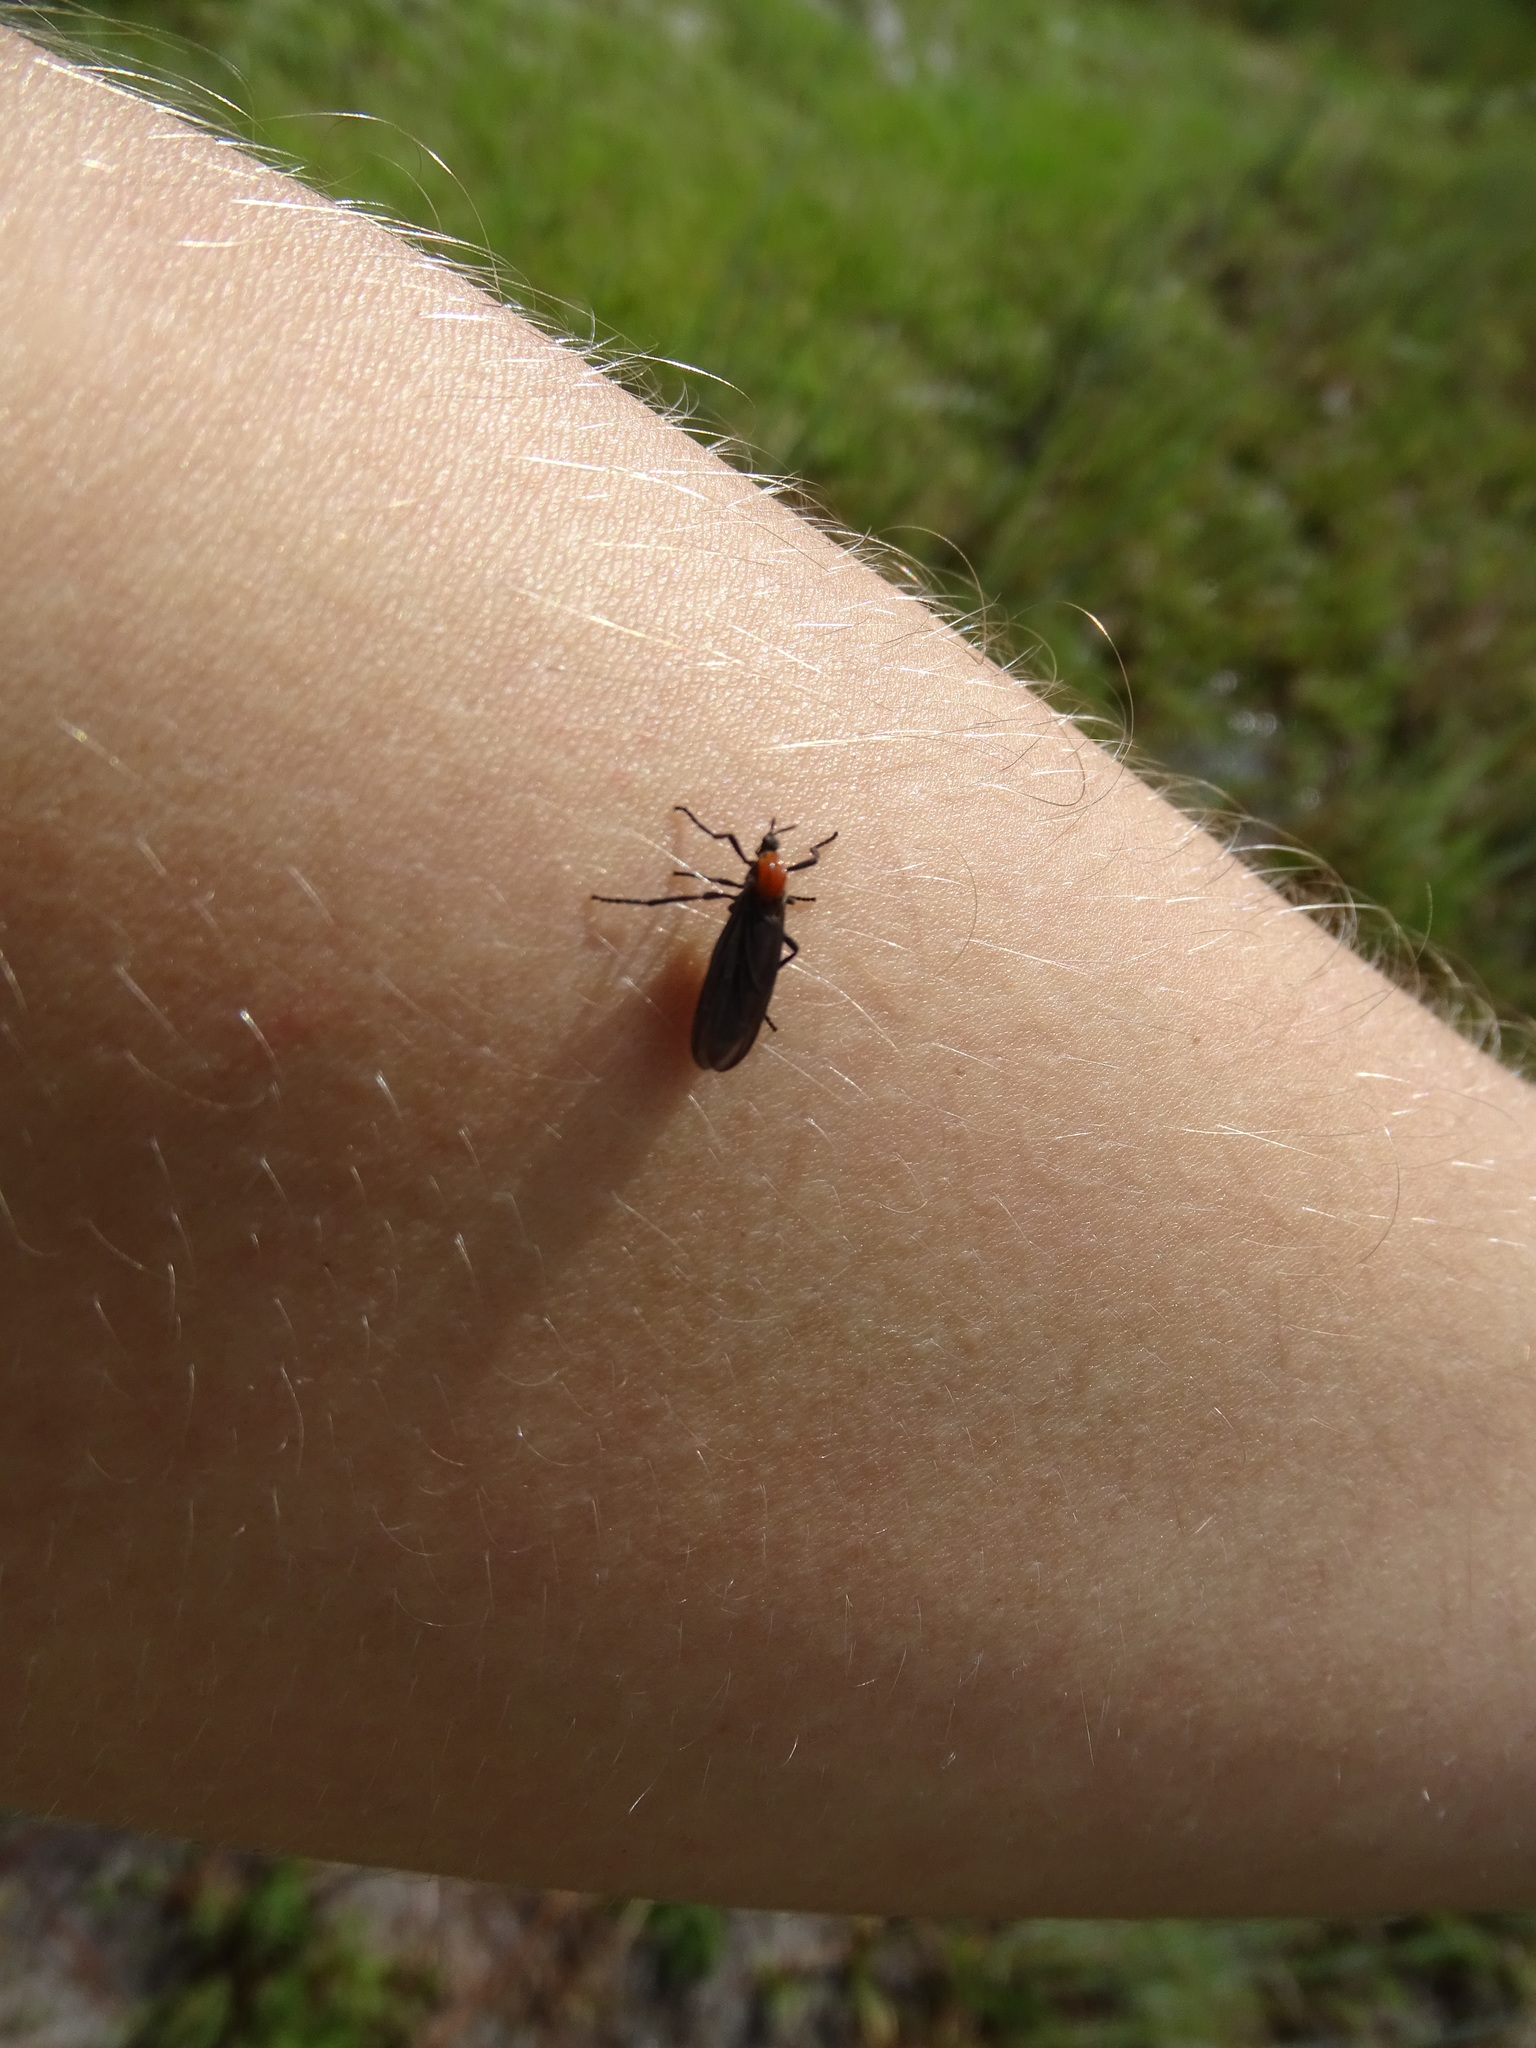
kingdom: Animalia
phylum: Arthropoda
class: Insecta
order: Diptera
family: Bibionidae
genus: Plecia
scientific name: Plecia nearctica
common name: March fly
